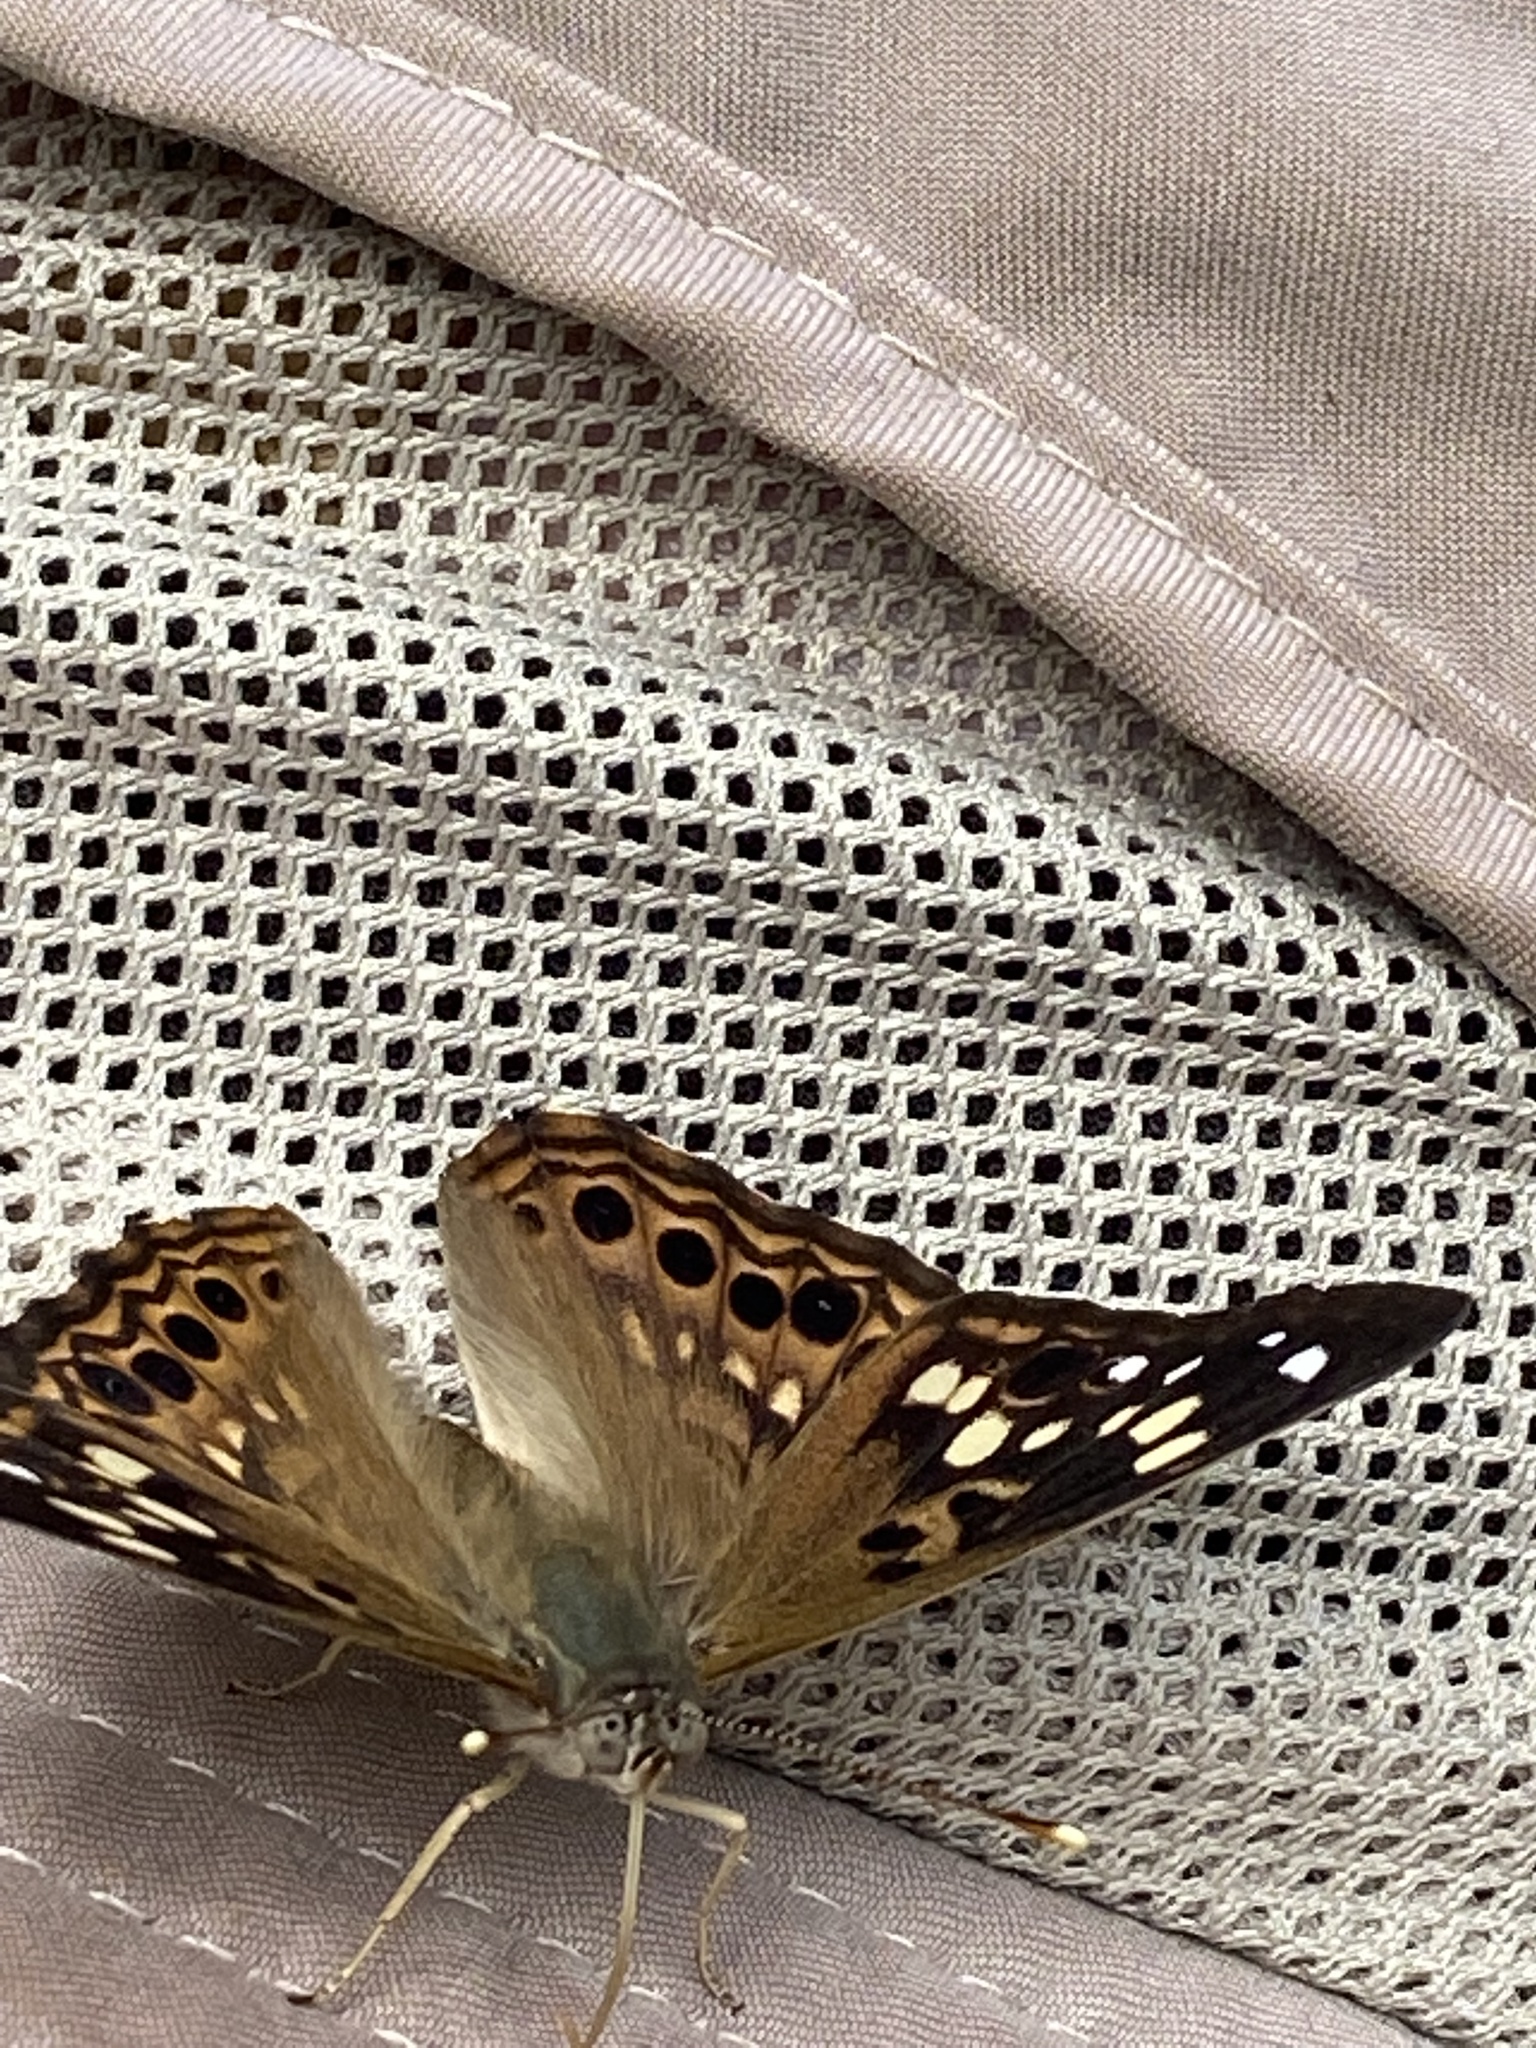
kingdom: Animalia
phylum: Arthropoda
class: Insecta
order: Lepidoptera
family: Nymphalidae
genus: Asterocampa
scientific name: Asterocampa celtis
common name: Hackberry emperor
